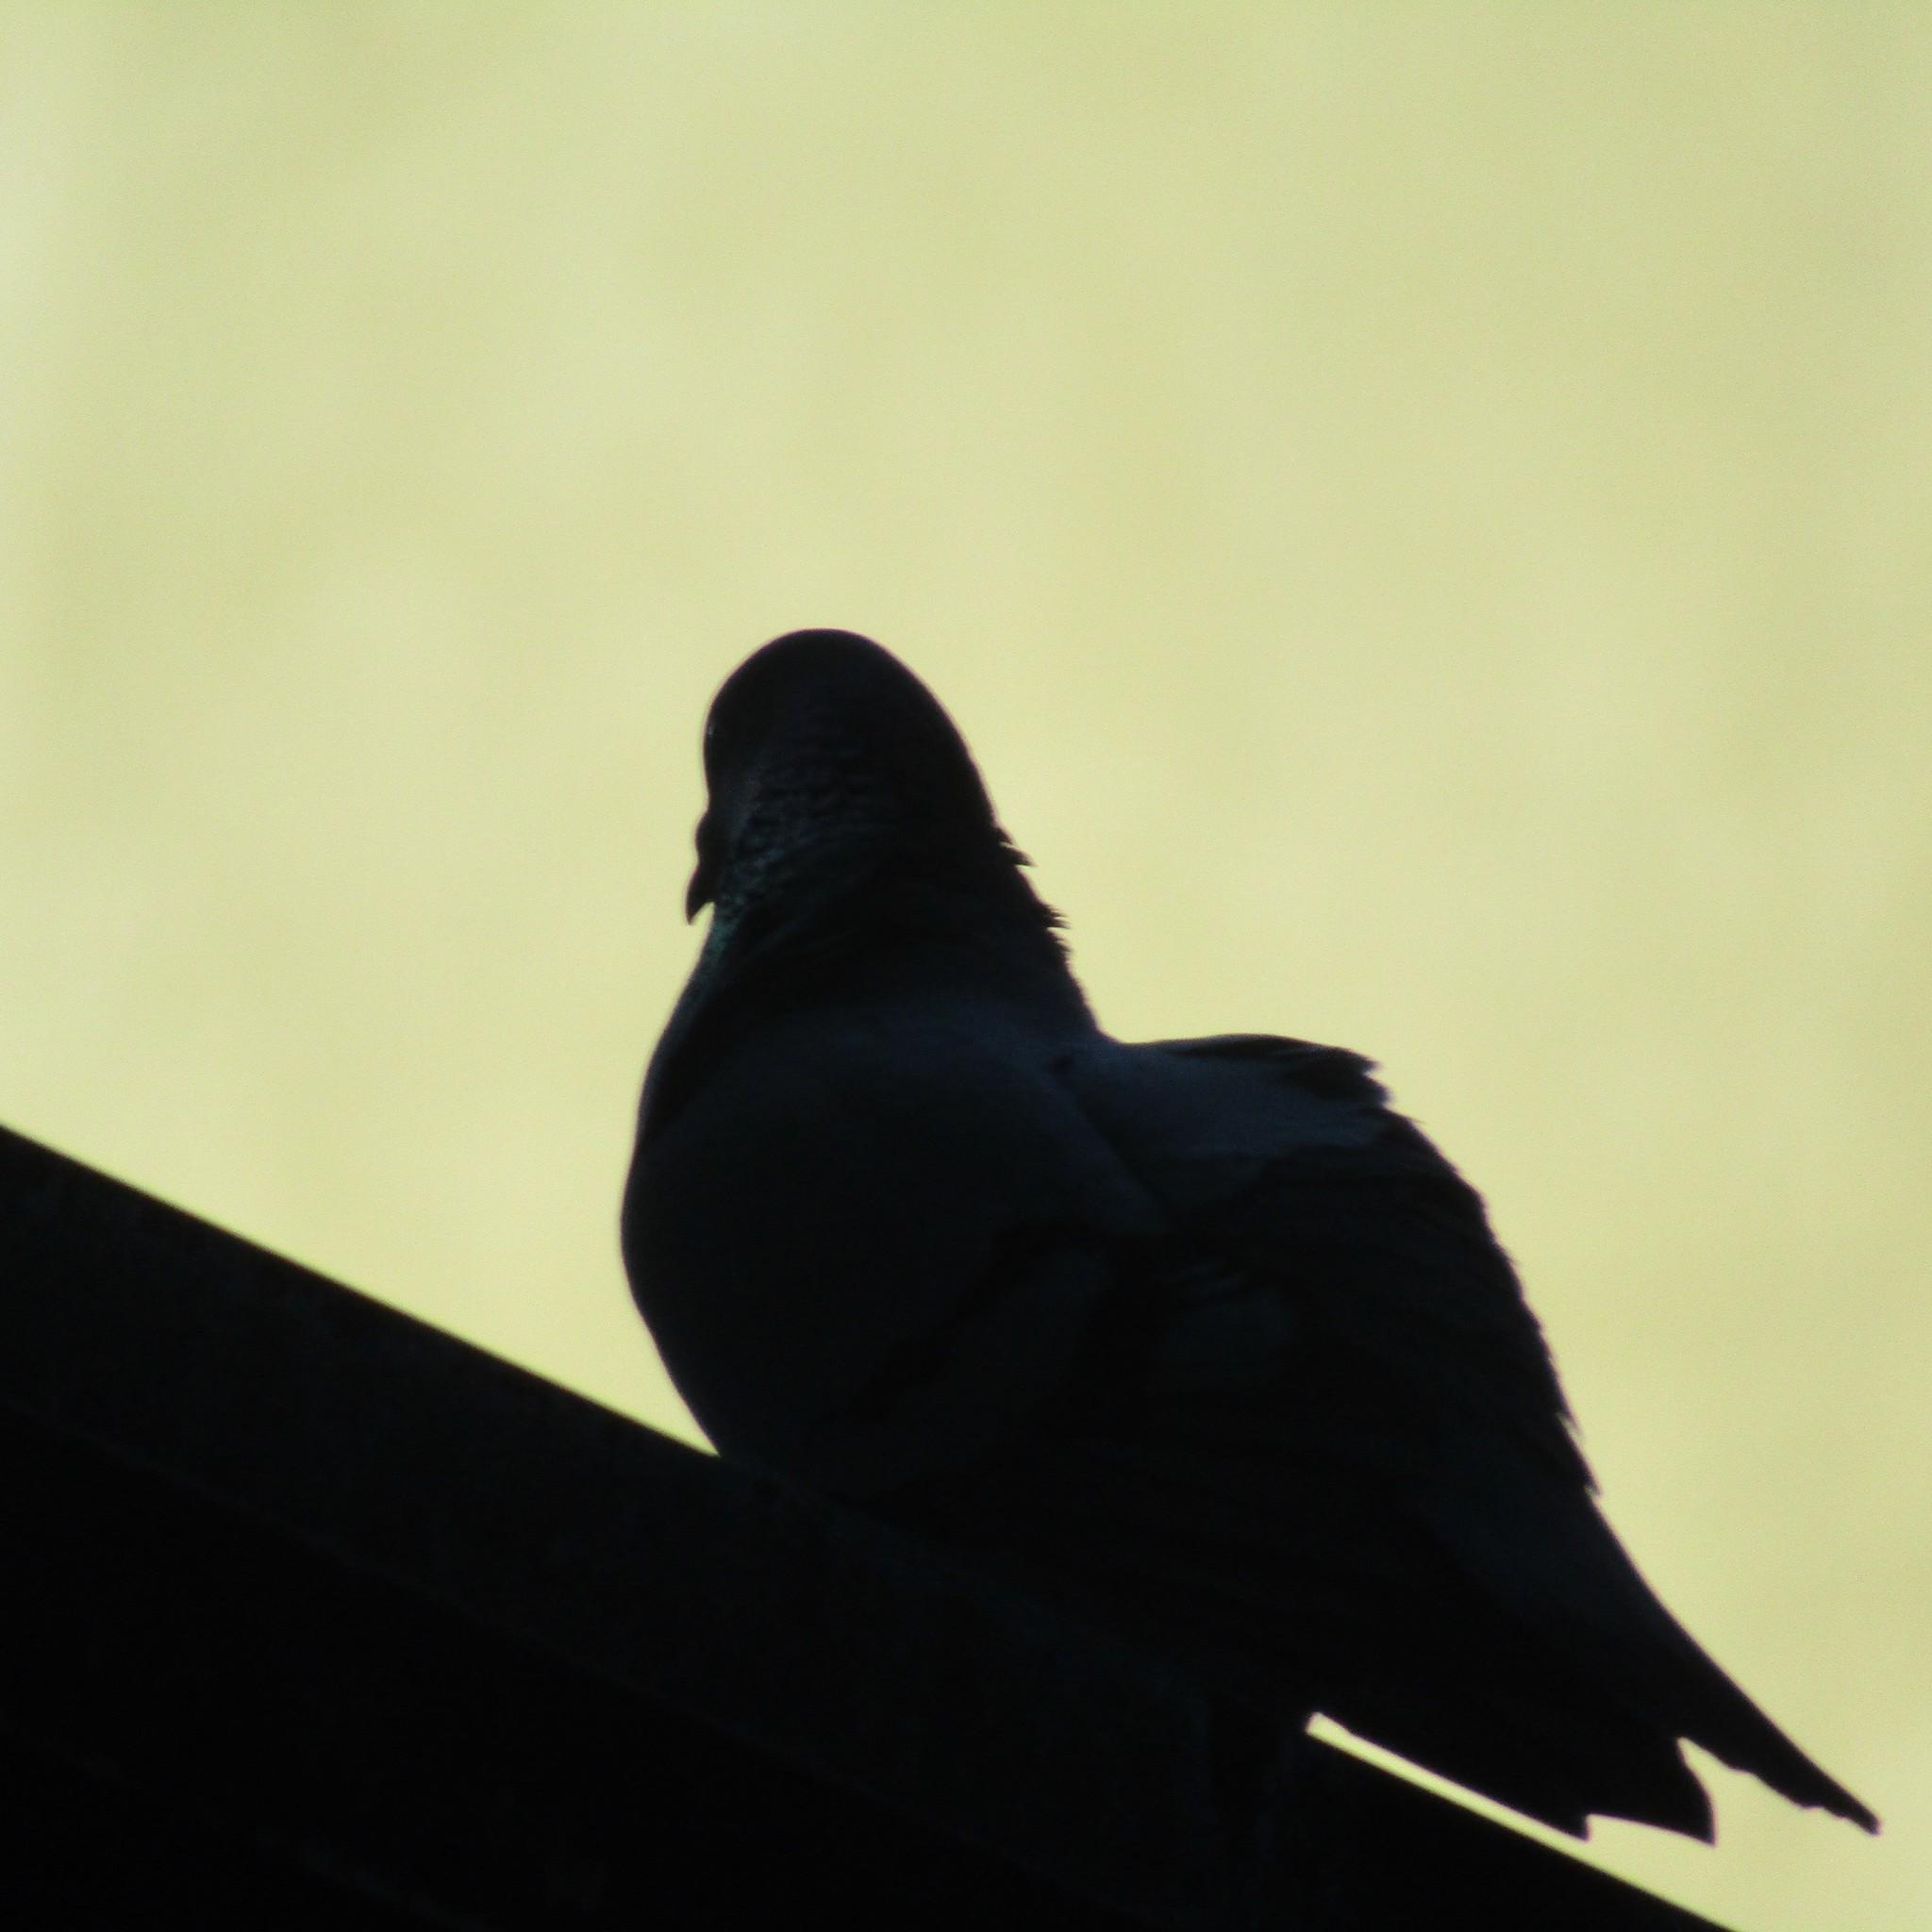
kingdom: Animalia
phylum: Chordata
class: Aves
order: Columbiformes
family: Columbidae
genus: Columba
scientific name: Columba livia
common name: Rock pigeon
